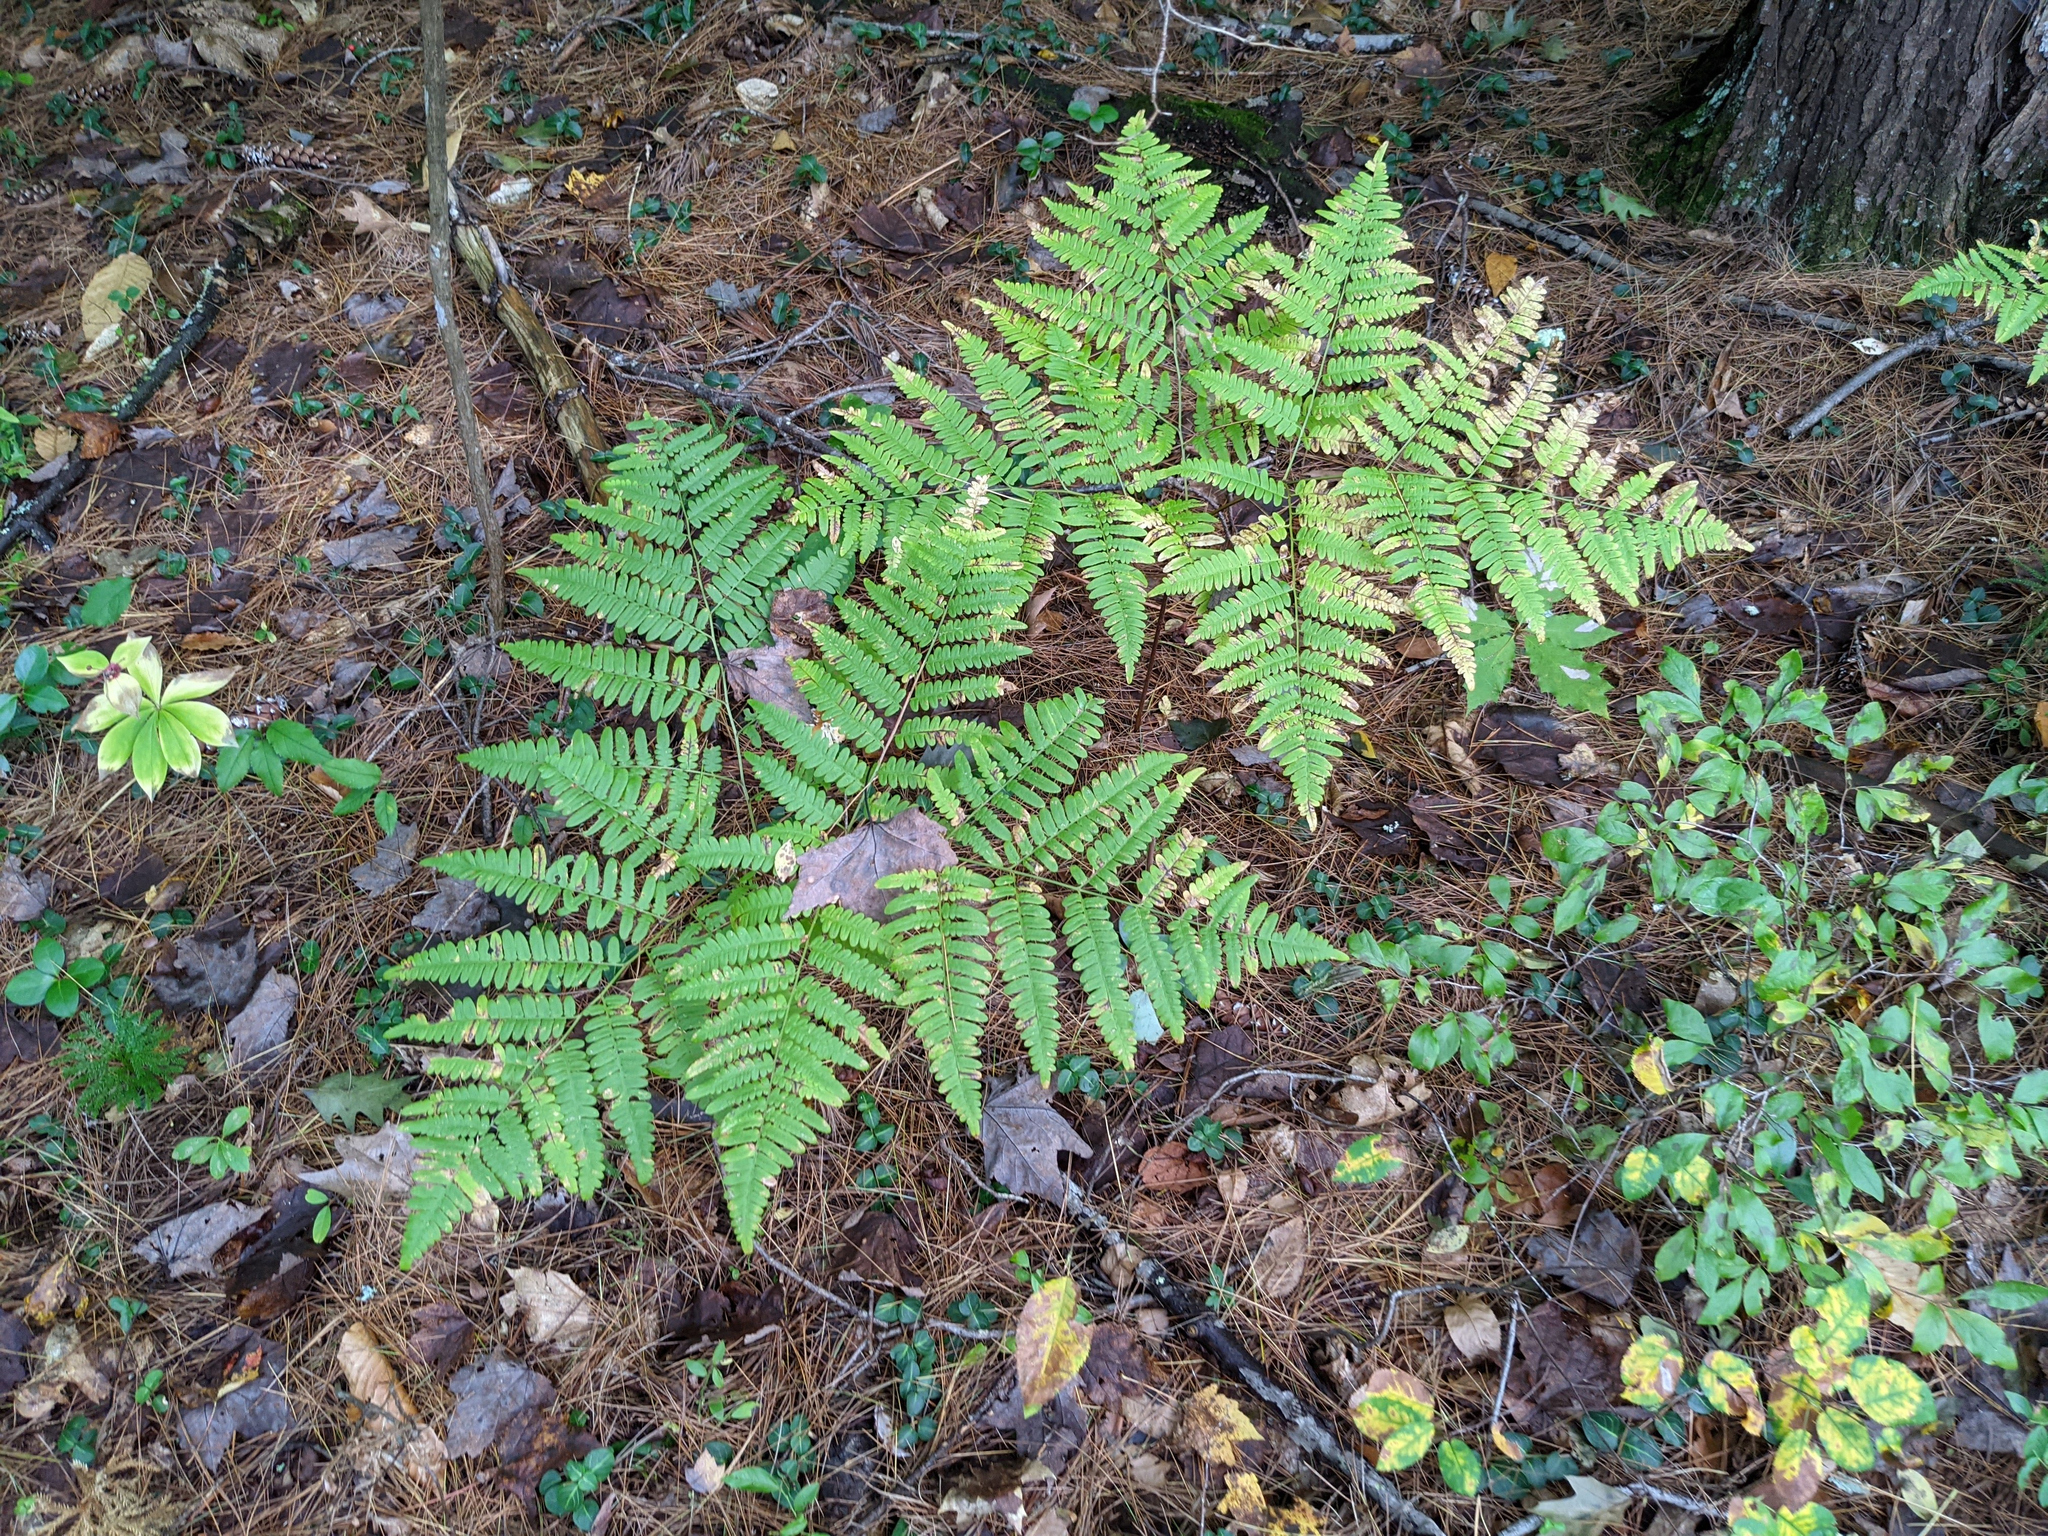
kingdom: Plantae
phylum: Tracheophyta
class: Polypodiopsida
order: Polypodiales
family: Dennstaedtiaceae
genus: Pteridium
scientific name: Pteridium aquilinum
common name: Bracken
